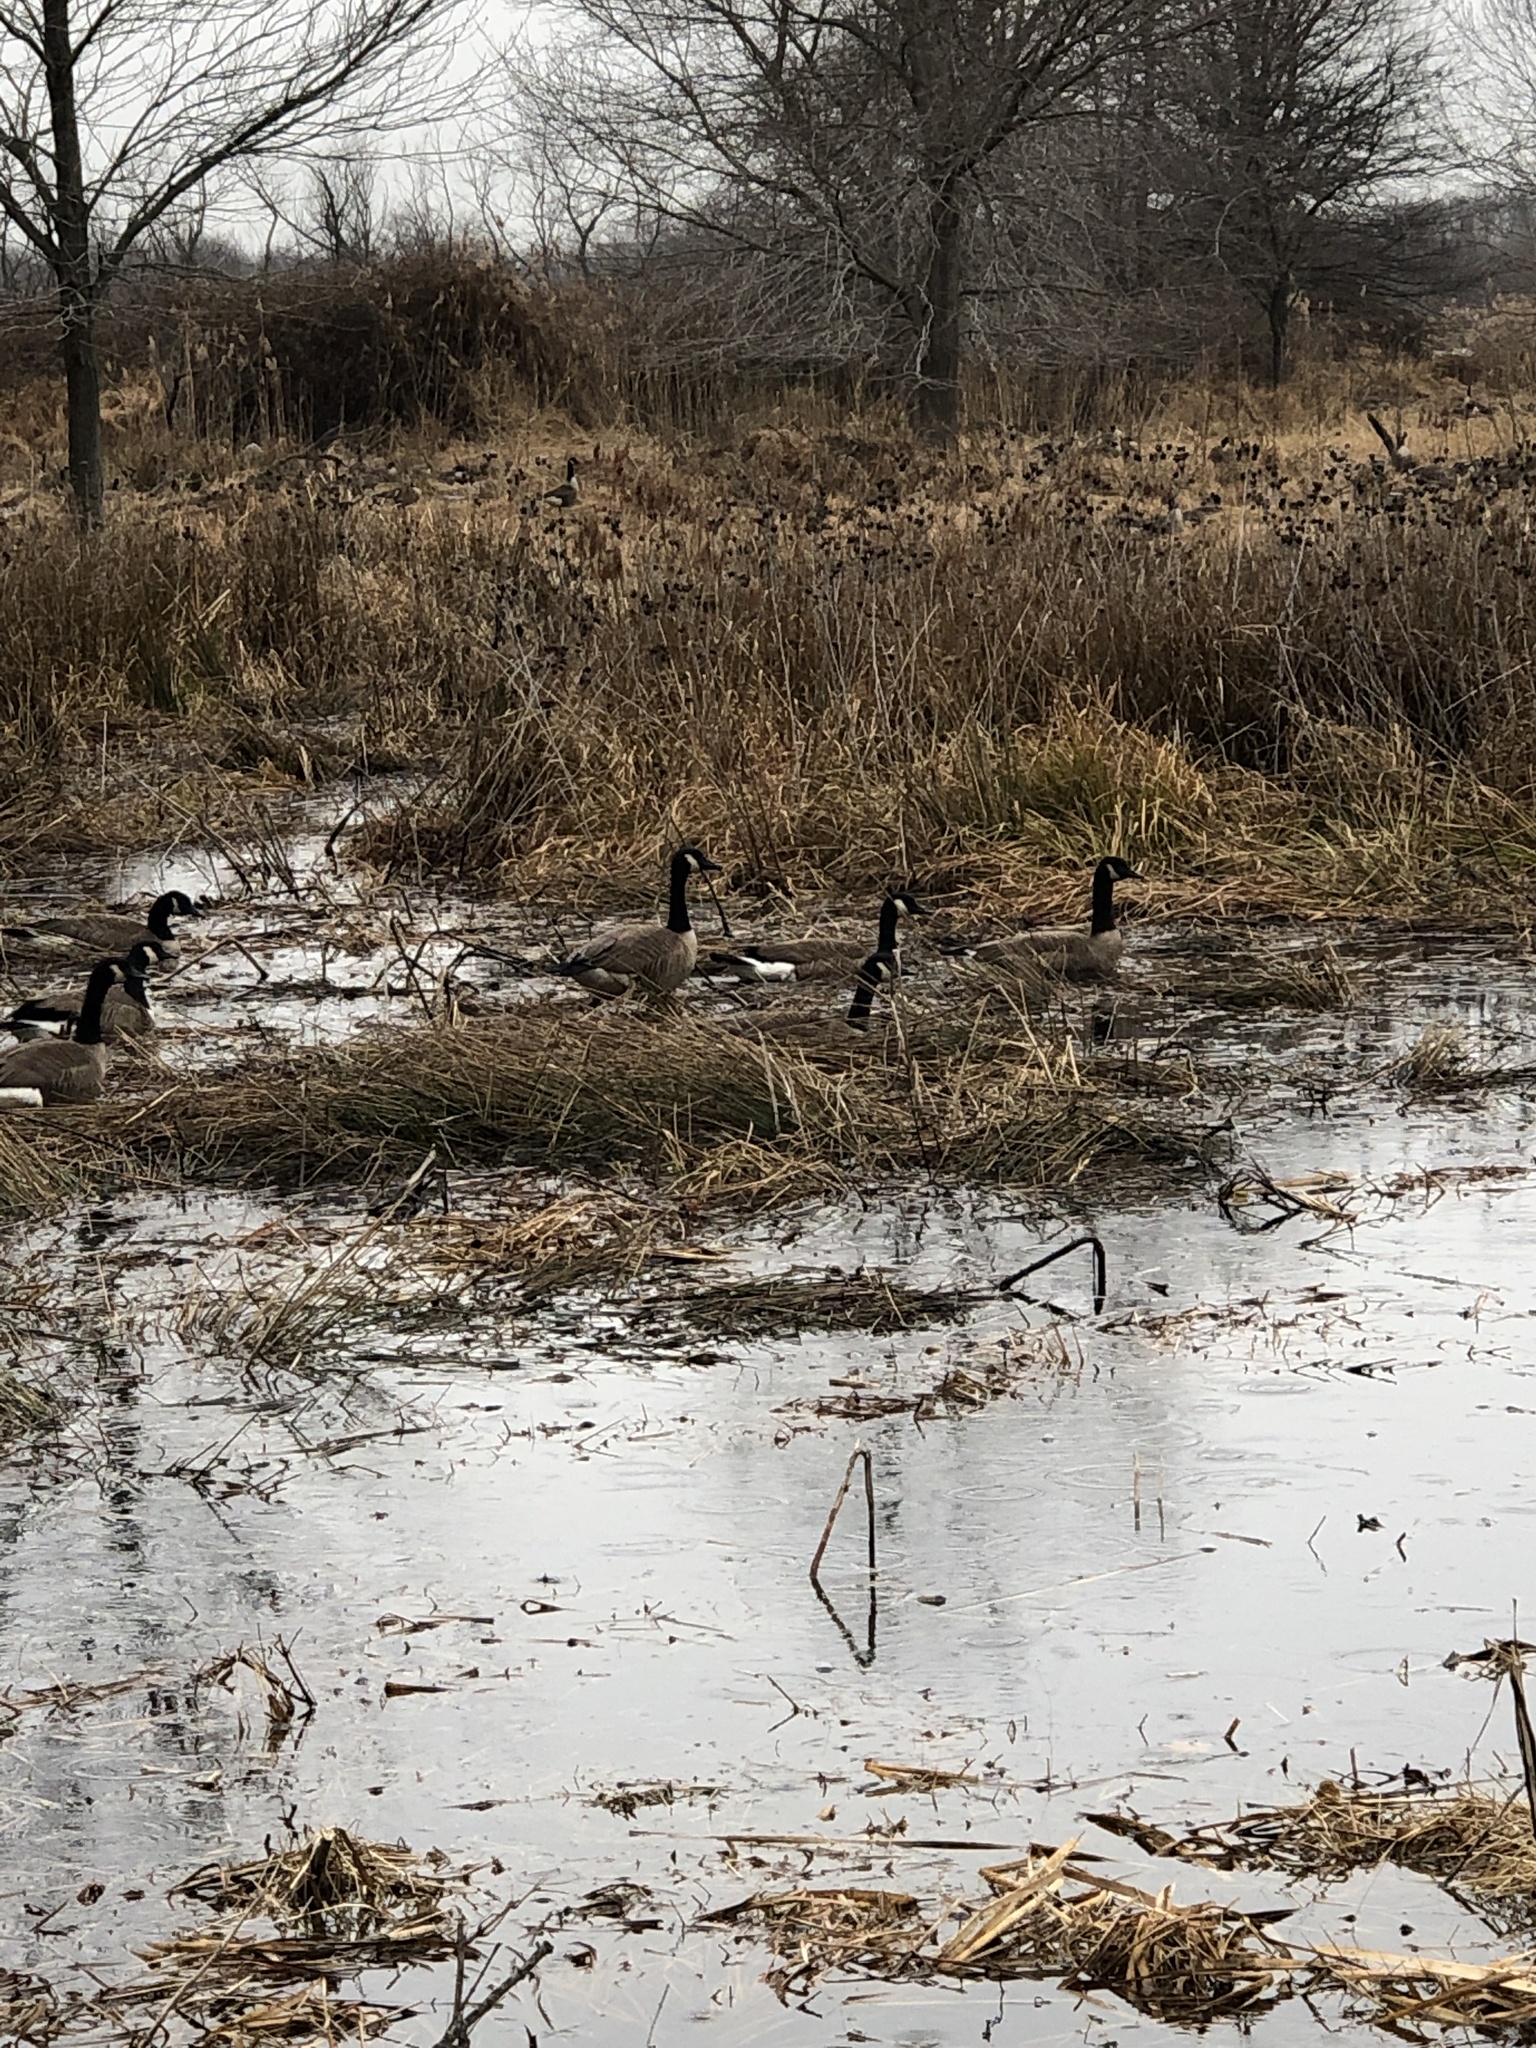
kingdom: Animalia
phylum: Chordata
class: Aves
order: Anseriformes
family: Anatidae
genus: Branta
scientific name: Branta canadensis
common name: Canada goose
